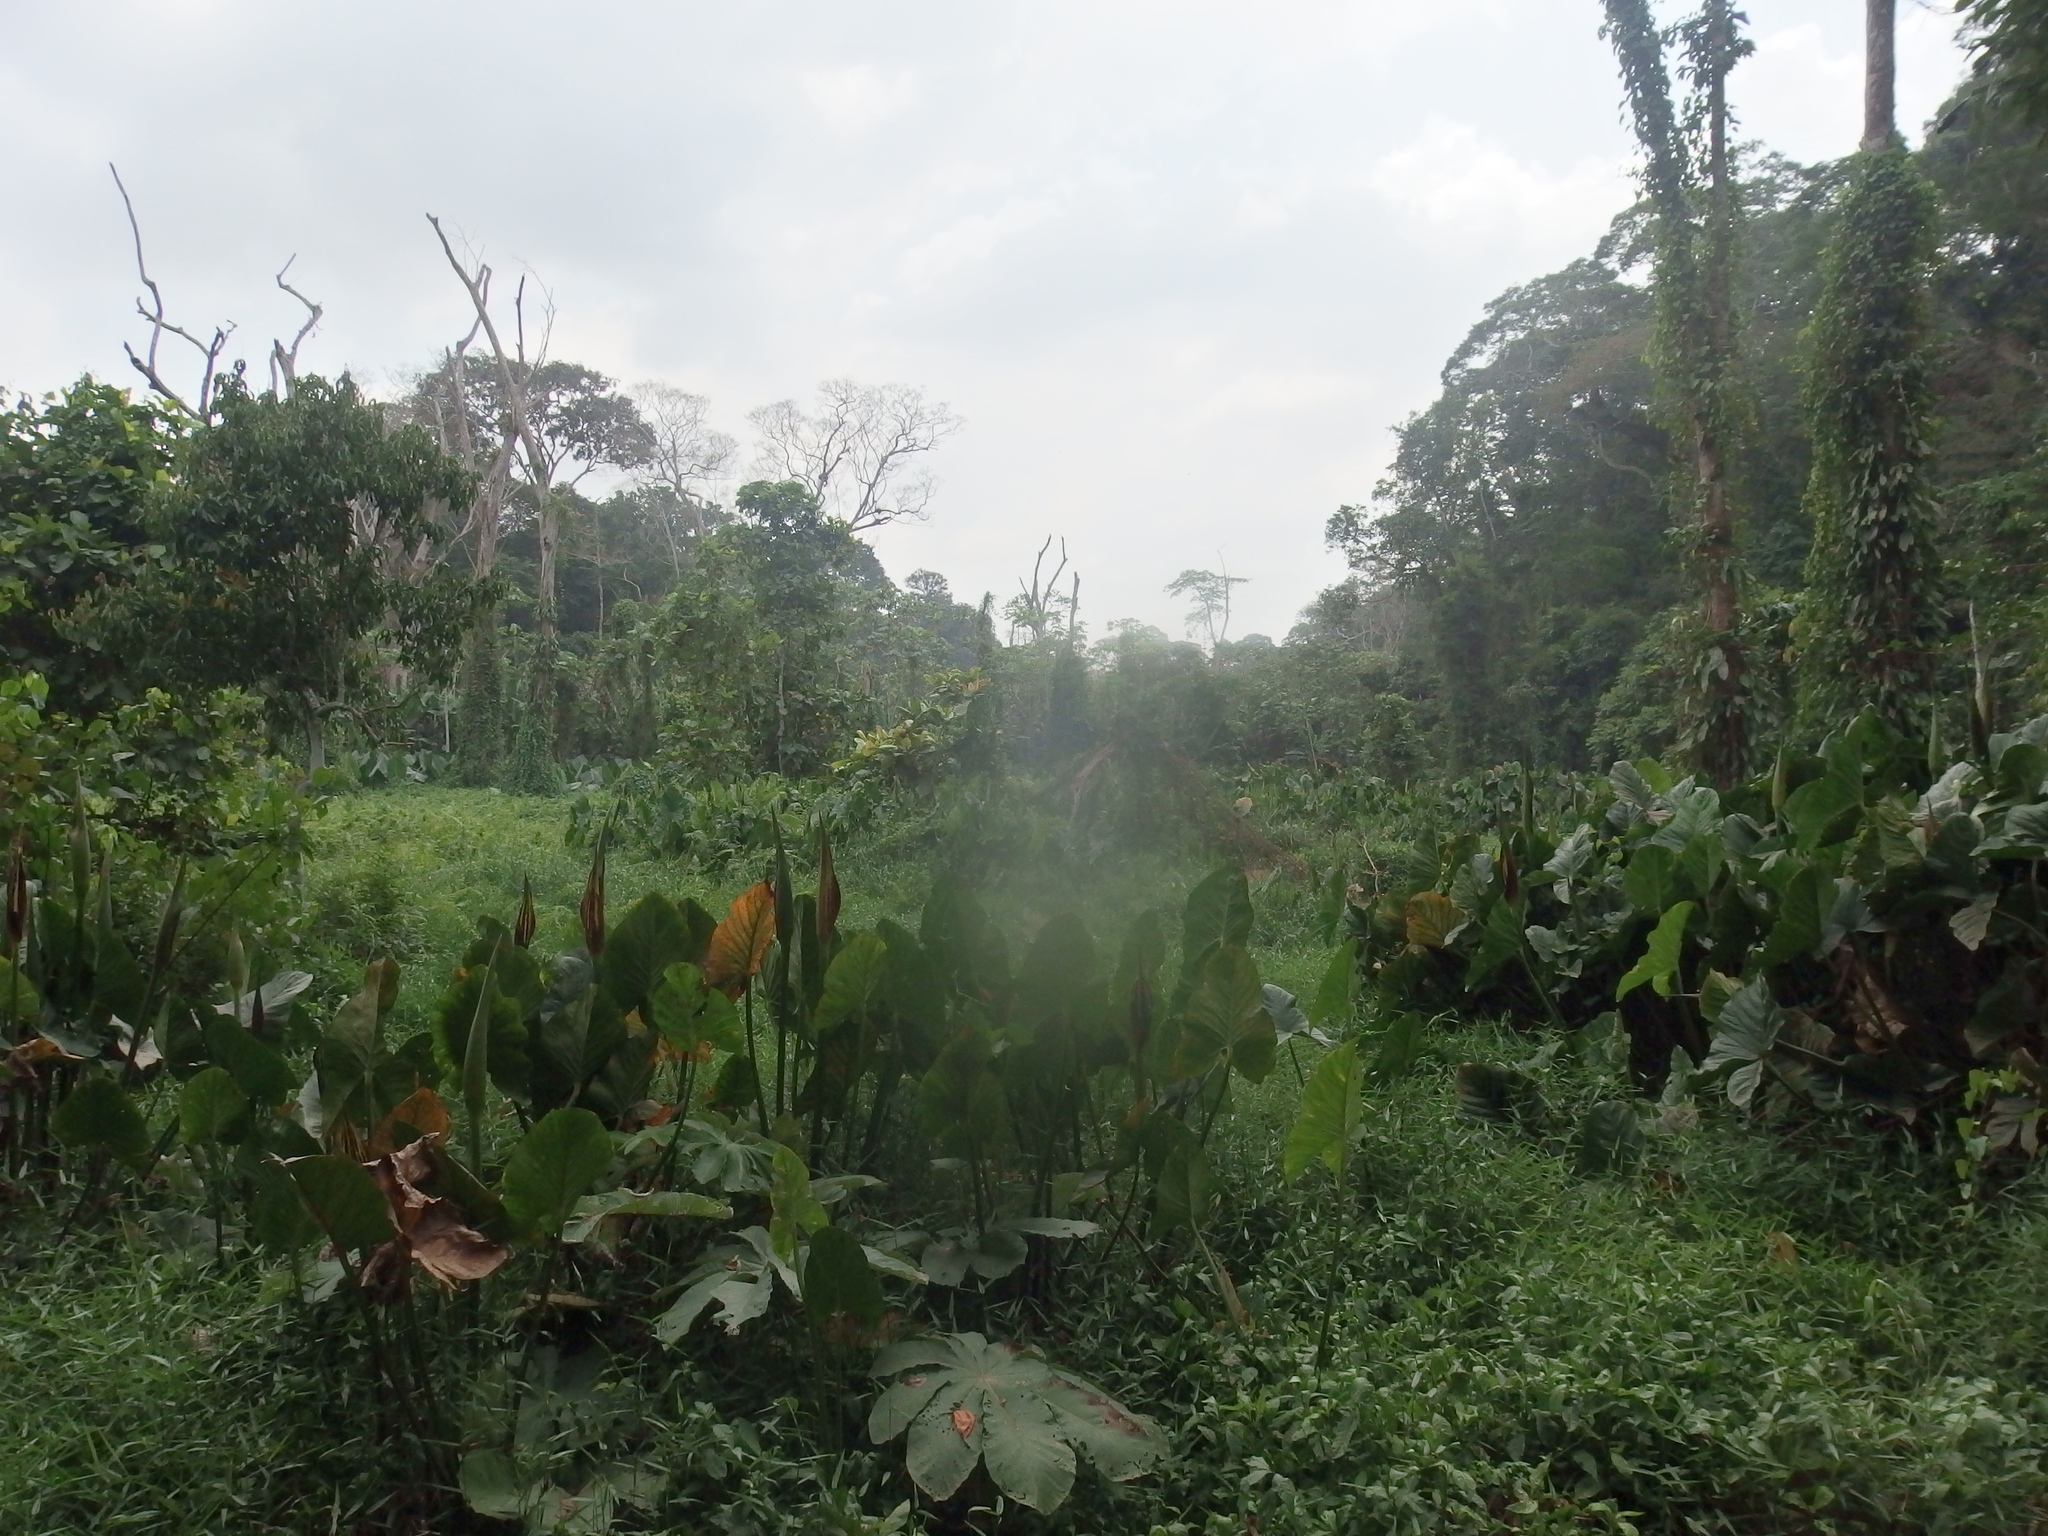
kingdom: Plantae
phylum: Tracheophyta
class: Liliopsida
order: Alismatales
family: Araceae
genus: Lasimorpha
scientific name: Lasimorpha senegalensis
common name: Swamp arum
